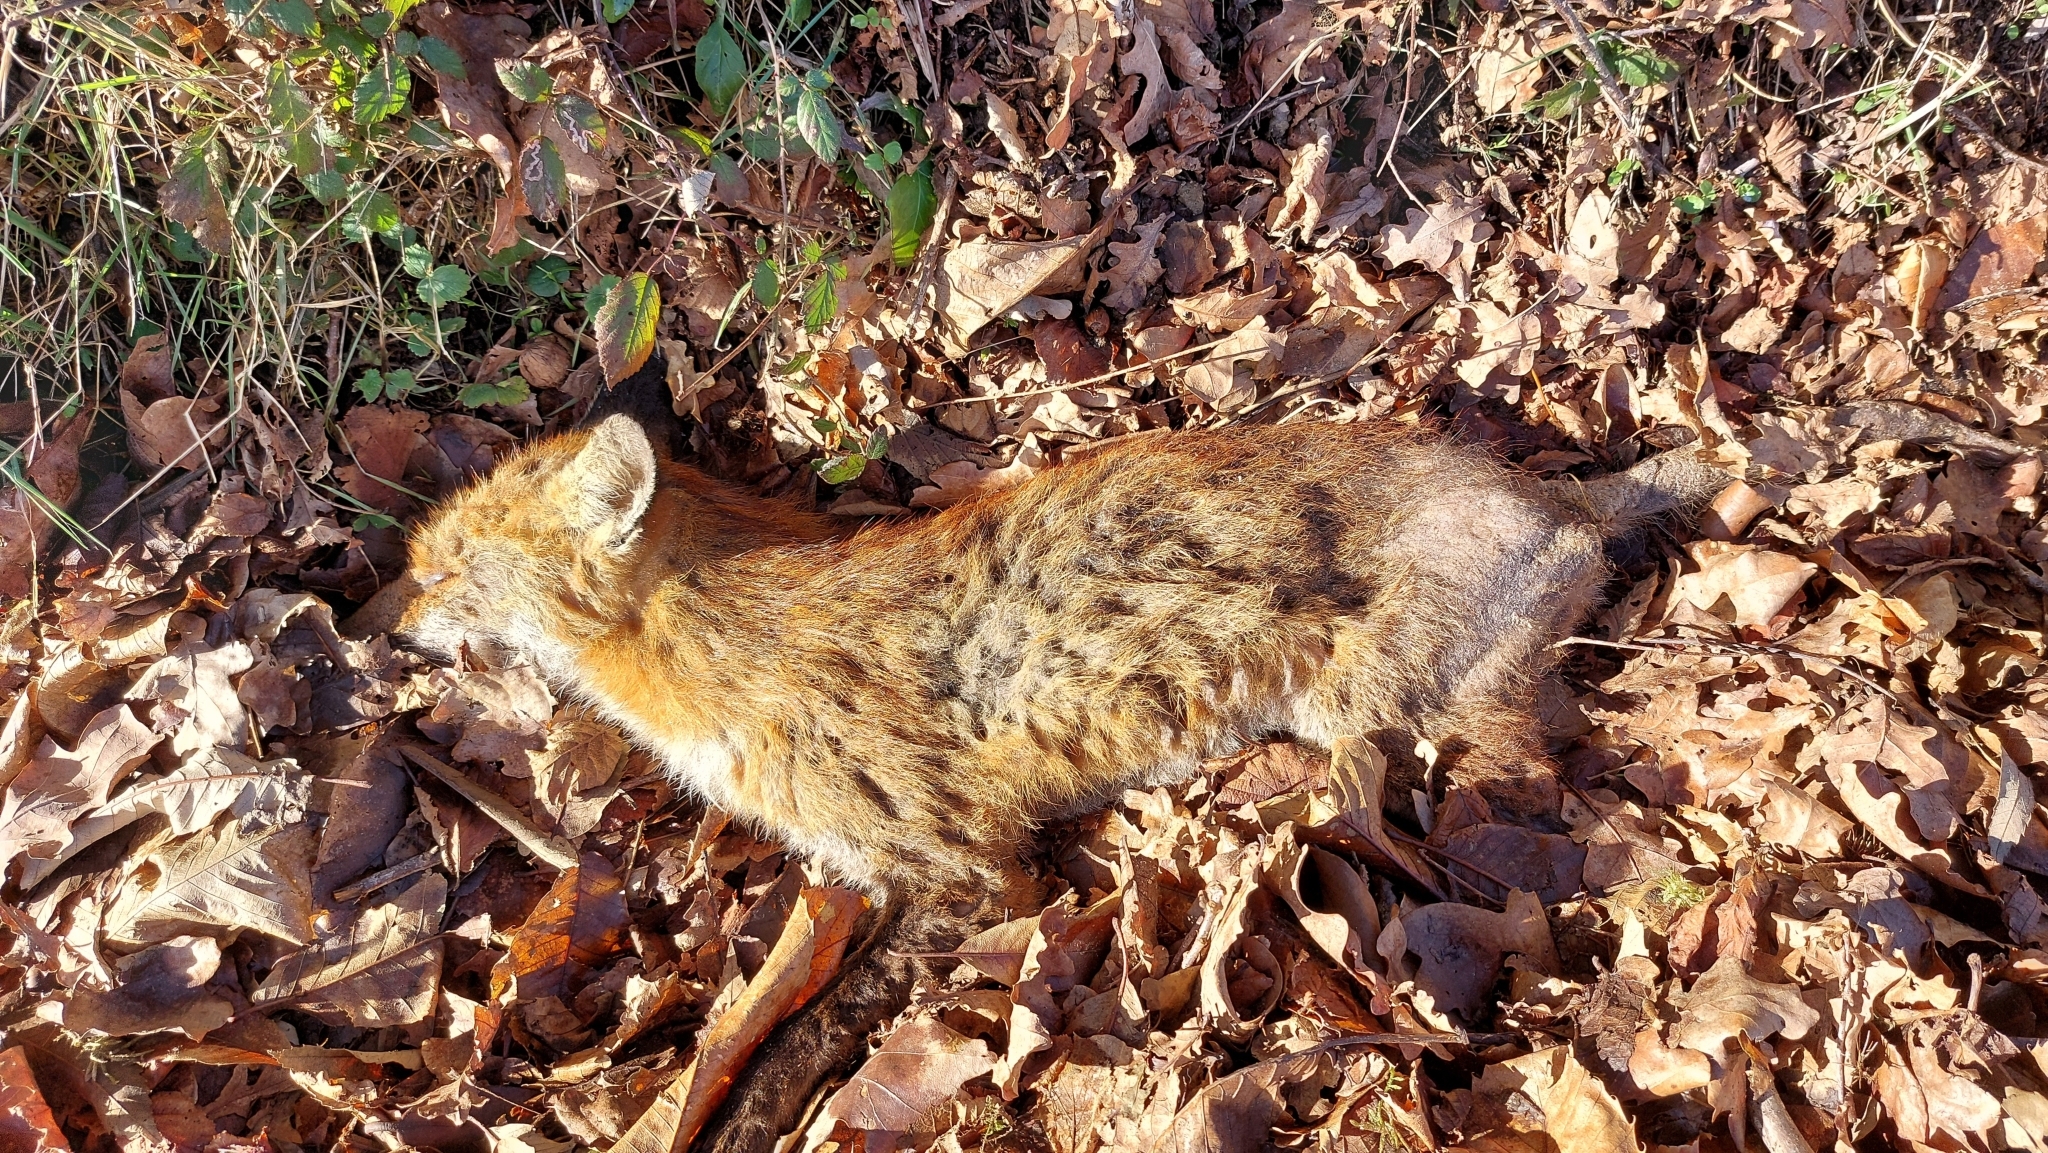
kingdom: Animalia
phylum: Chordata
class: Mammalia
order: Carnivora
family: Canidae
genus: Vulpes
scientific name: Vulpes vulpes
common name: Red fox
